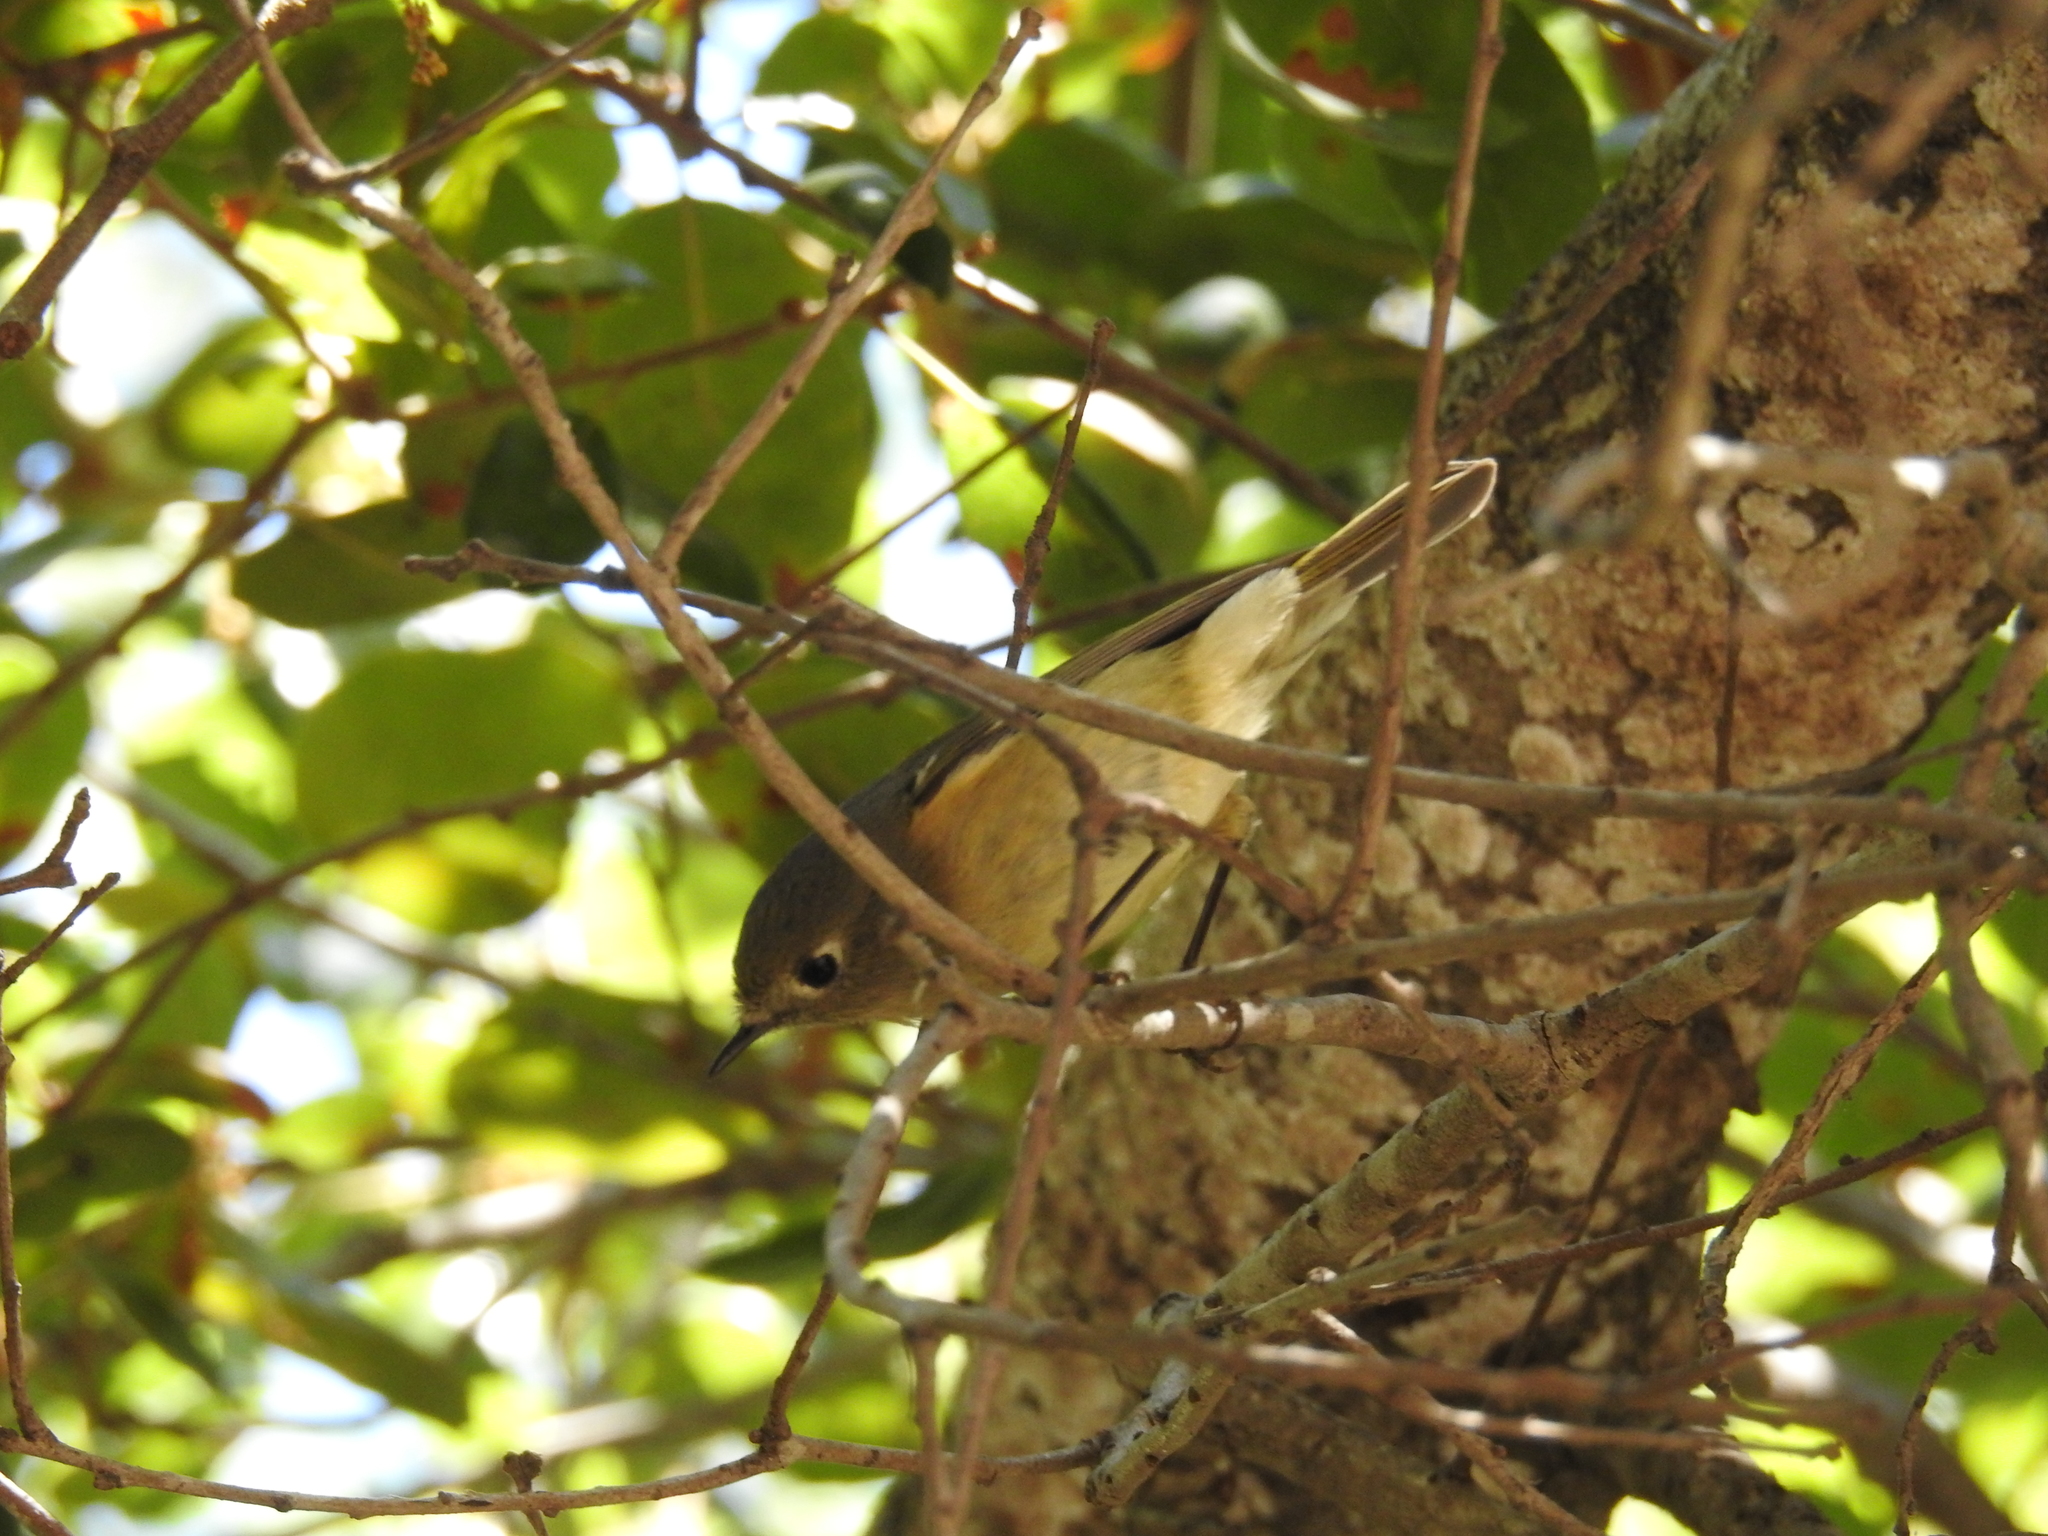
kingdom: Animalia
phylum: Chordata
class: Aves
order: Passeriformes
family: Regulidae
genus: Regulus
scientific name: Regulus calendula
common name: Ruby-crowned kinglet
